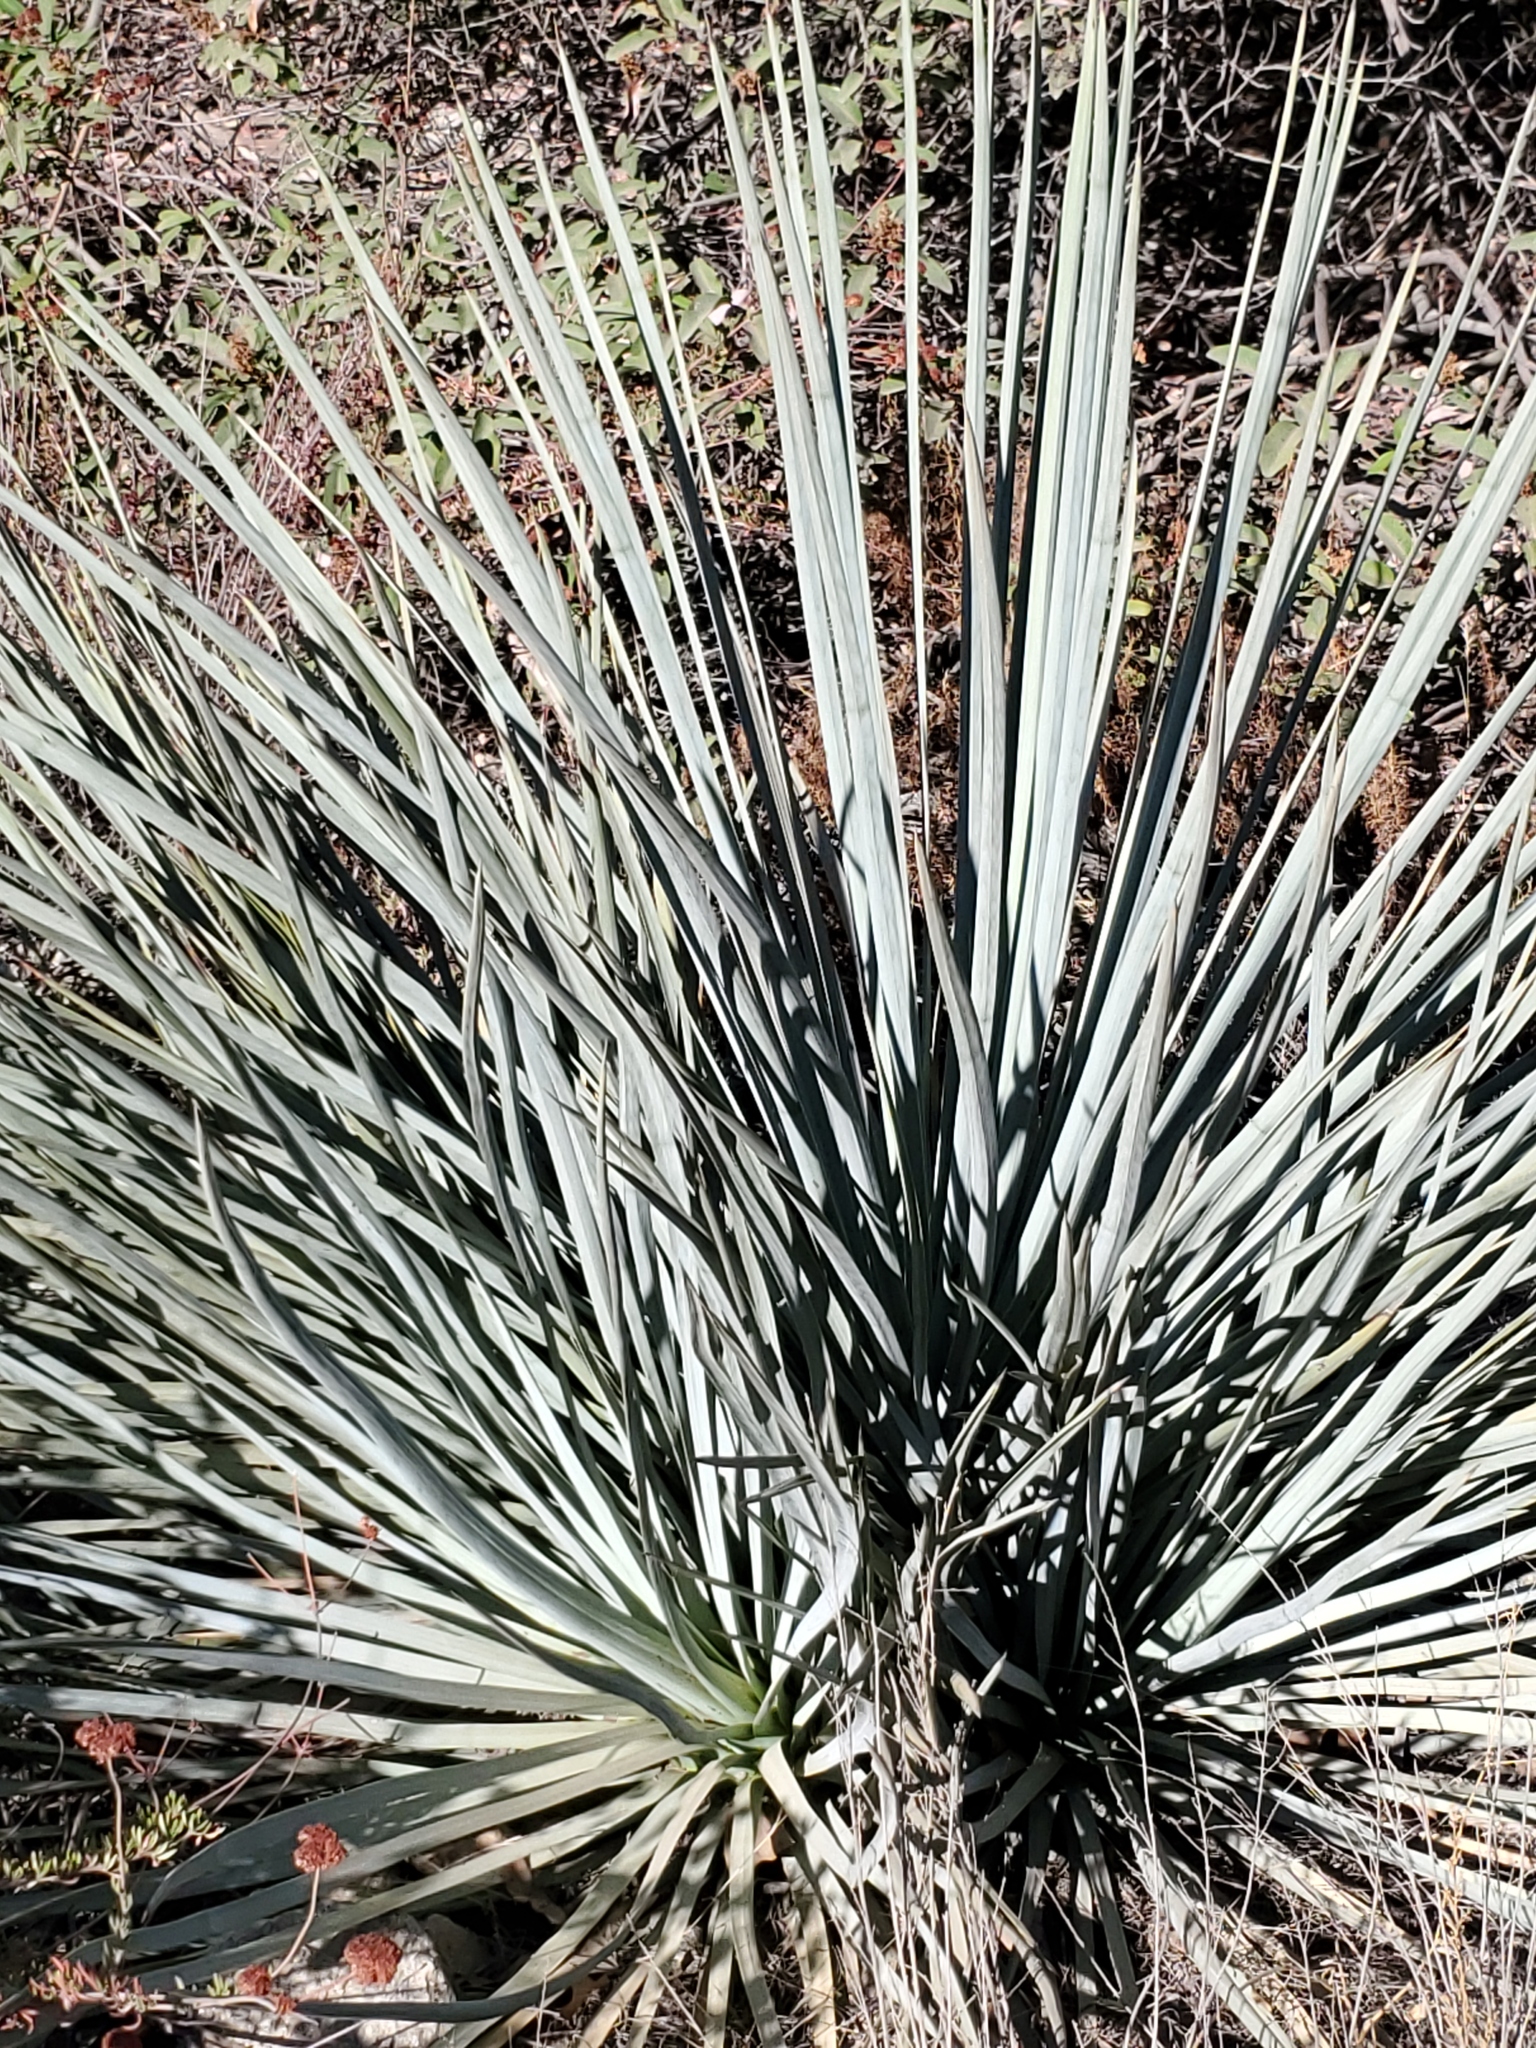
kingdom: Plantae
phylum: Tracheophyta
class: Liliopsida
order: Asparagales
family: Asparagaceae
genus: Hesperoyucca
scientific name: Hesperoyucca whipplei
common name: Our lord's-candle
